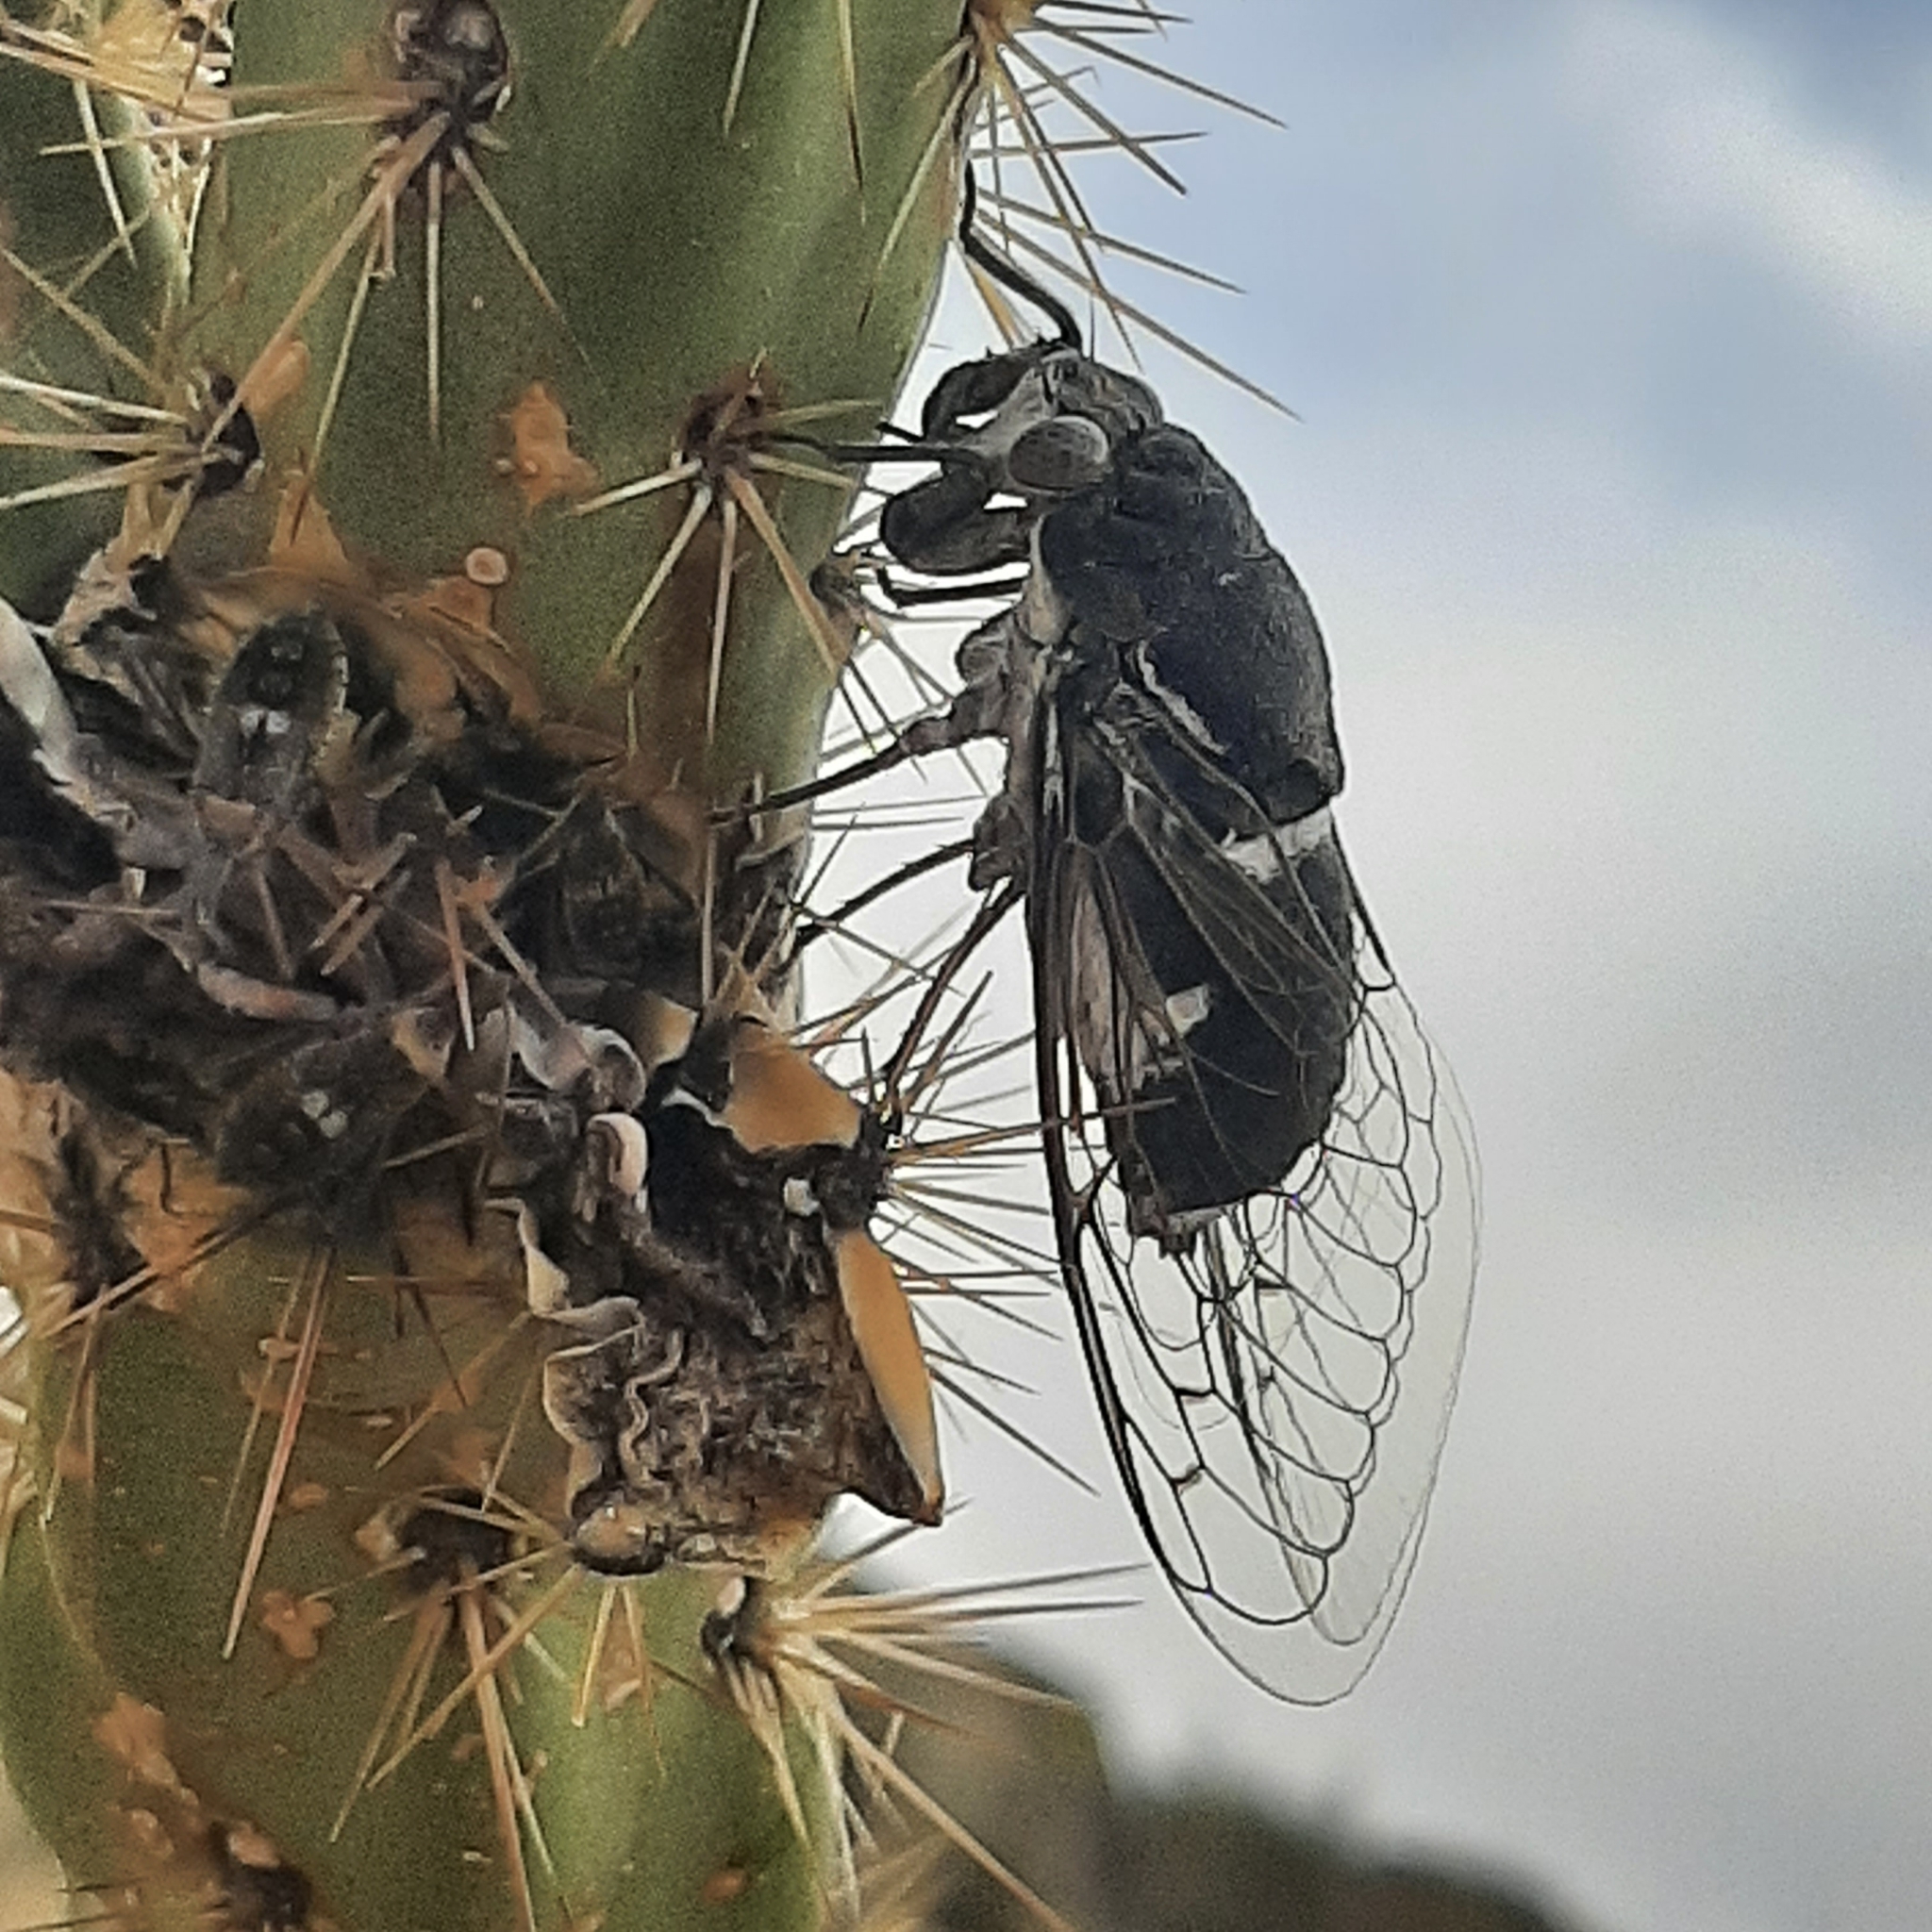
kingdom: Animalia
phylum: Arthropoda
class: Insecta
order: Hemiptera
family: Cicadidae
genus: Cacama
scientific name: Cacama valvata
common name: Cactus dodger
